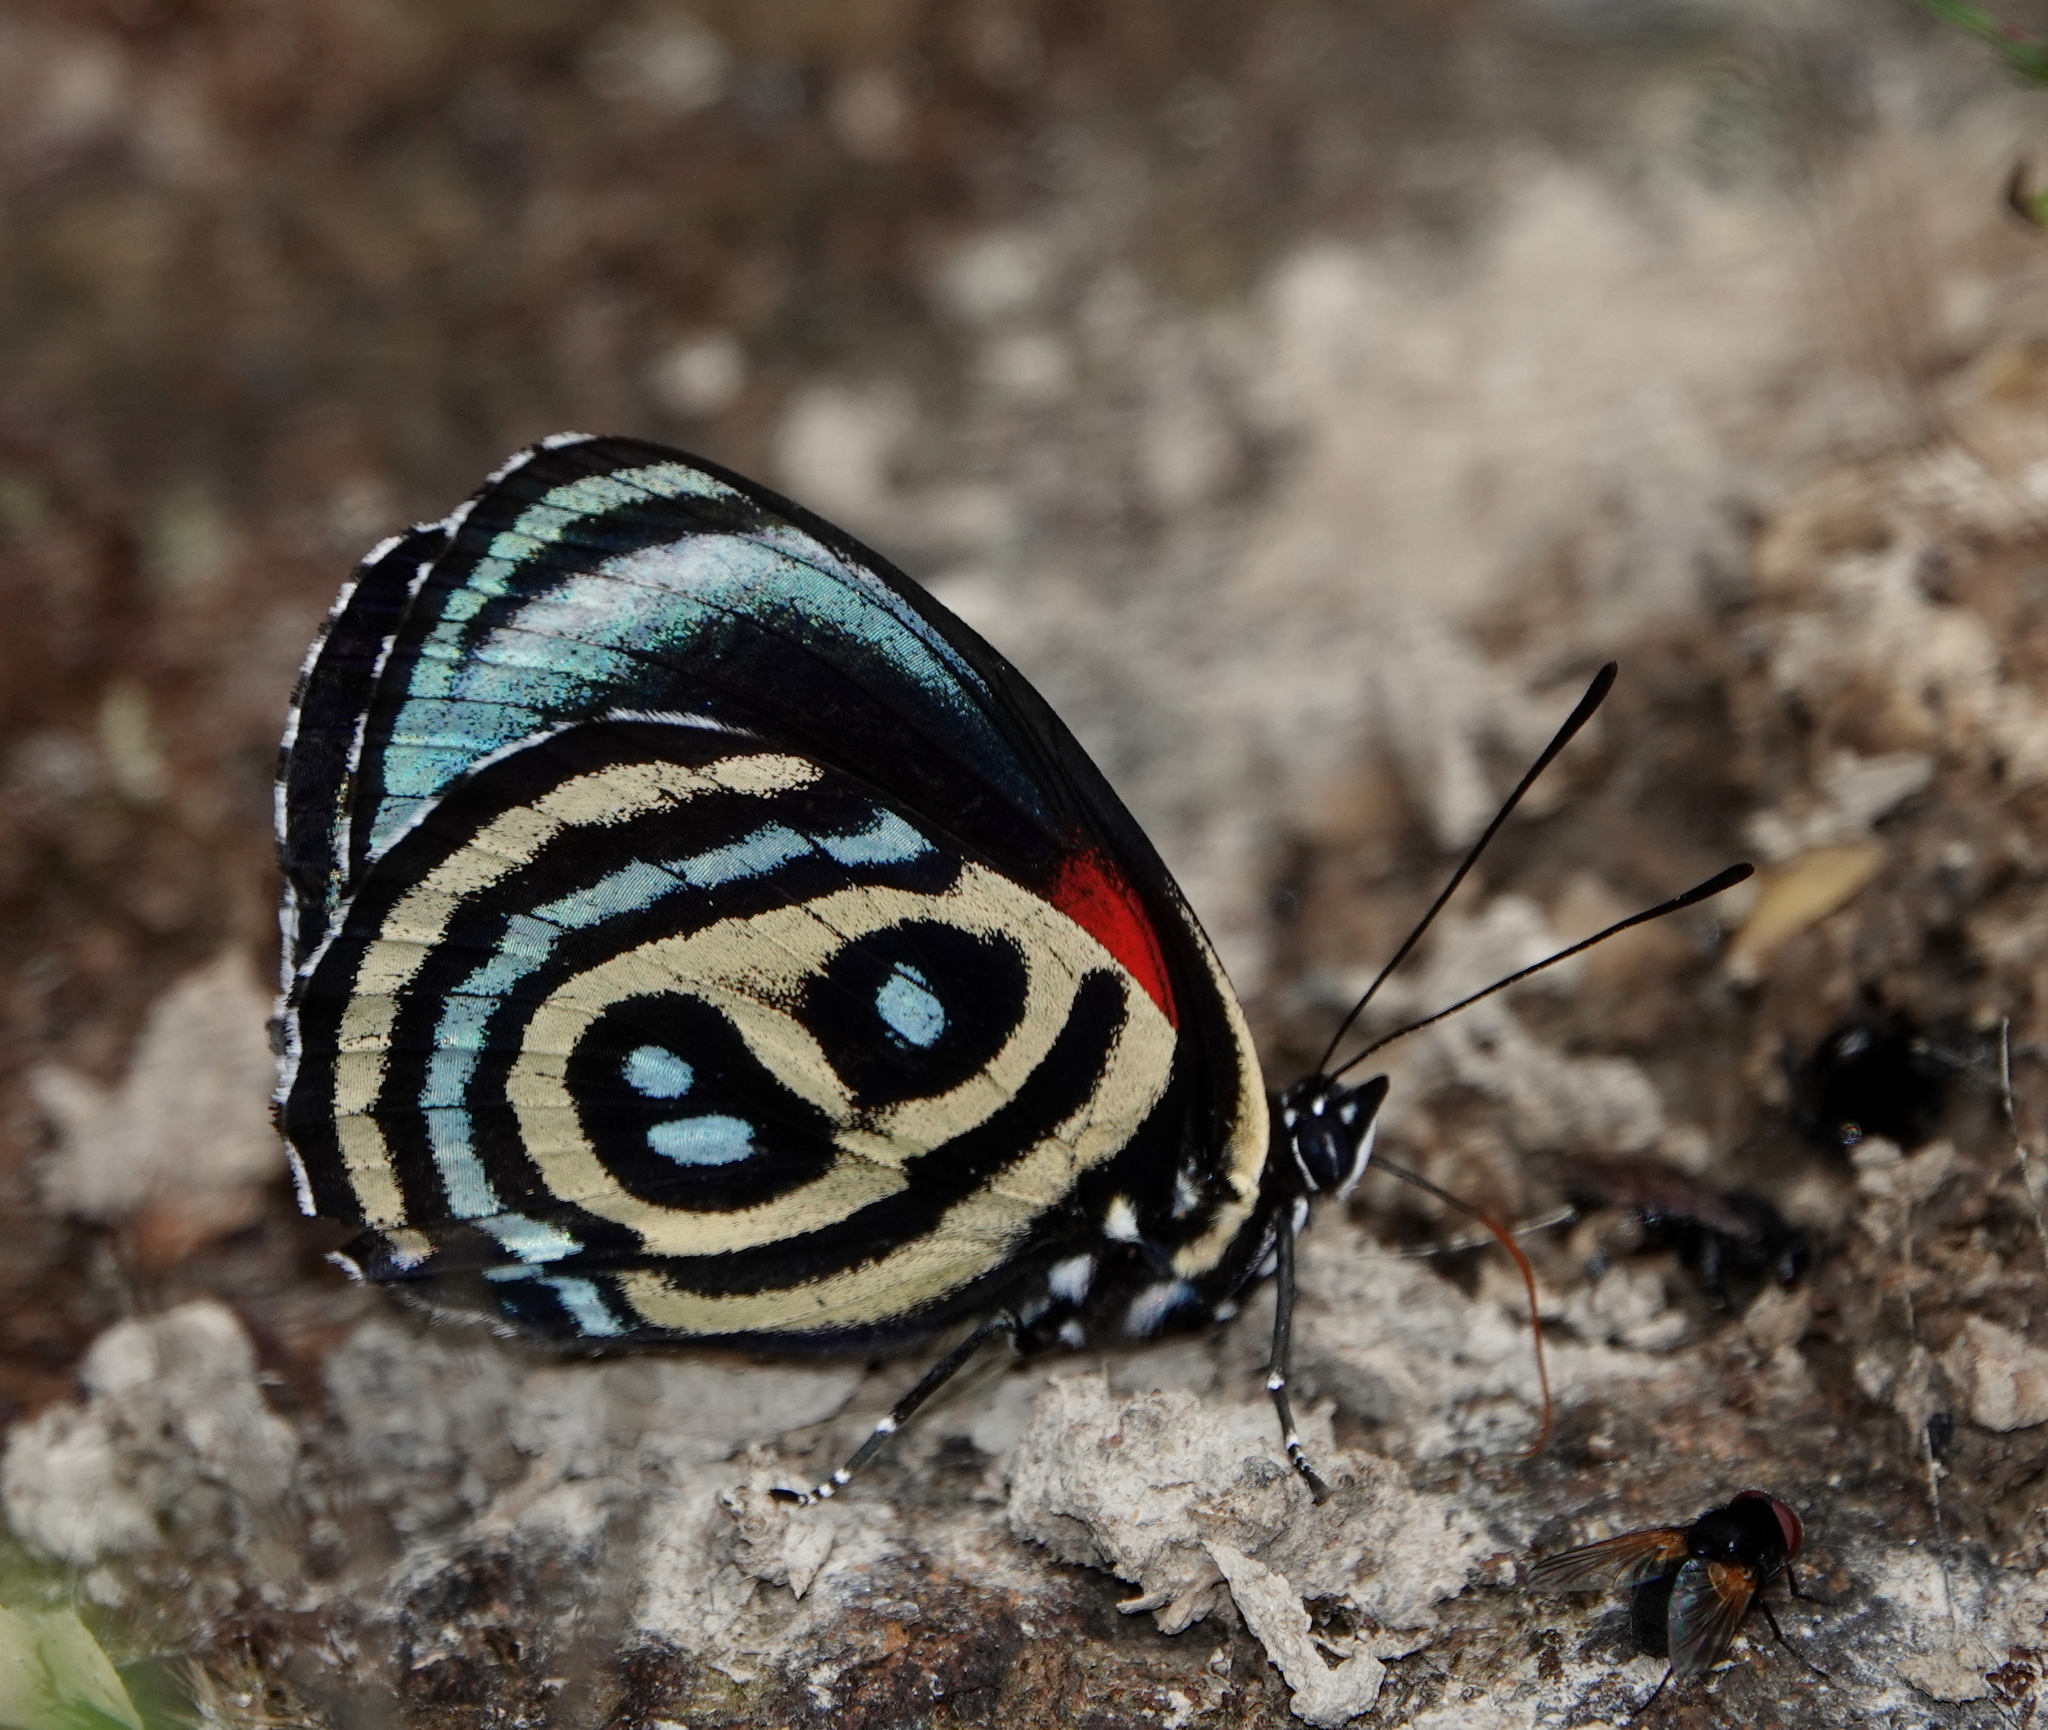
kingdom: Animalia
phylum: Arthropoda
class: Insecta
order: Lepidoptera
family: Nymphalidae
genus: Catagramma
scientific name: Catagramma
